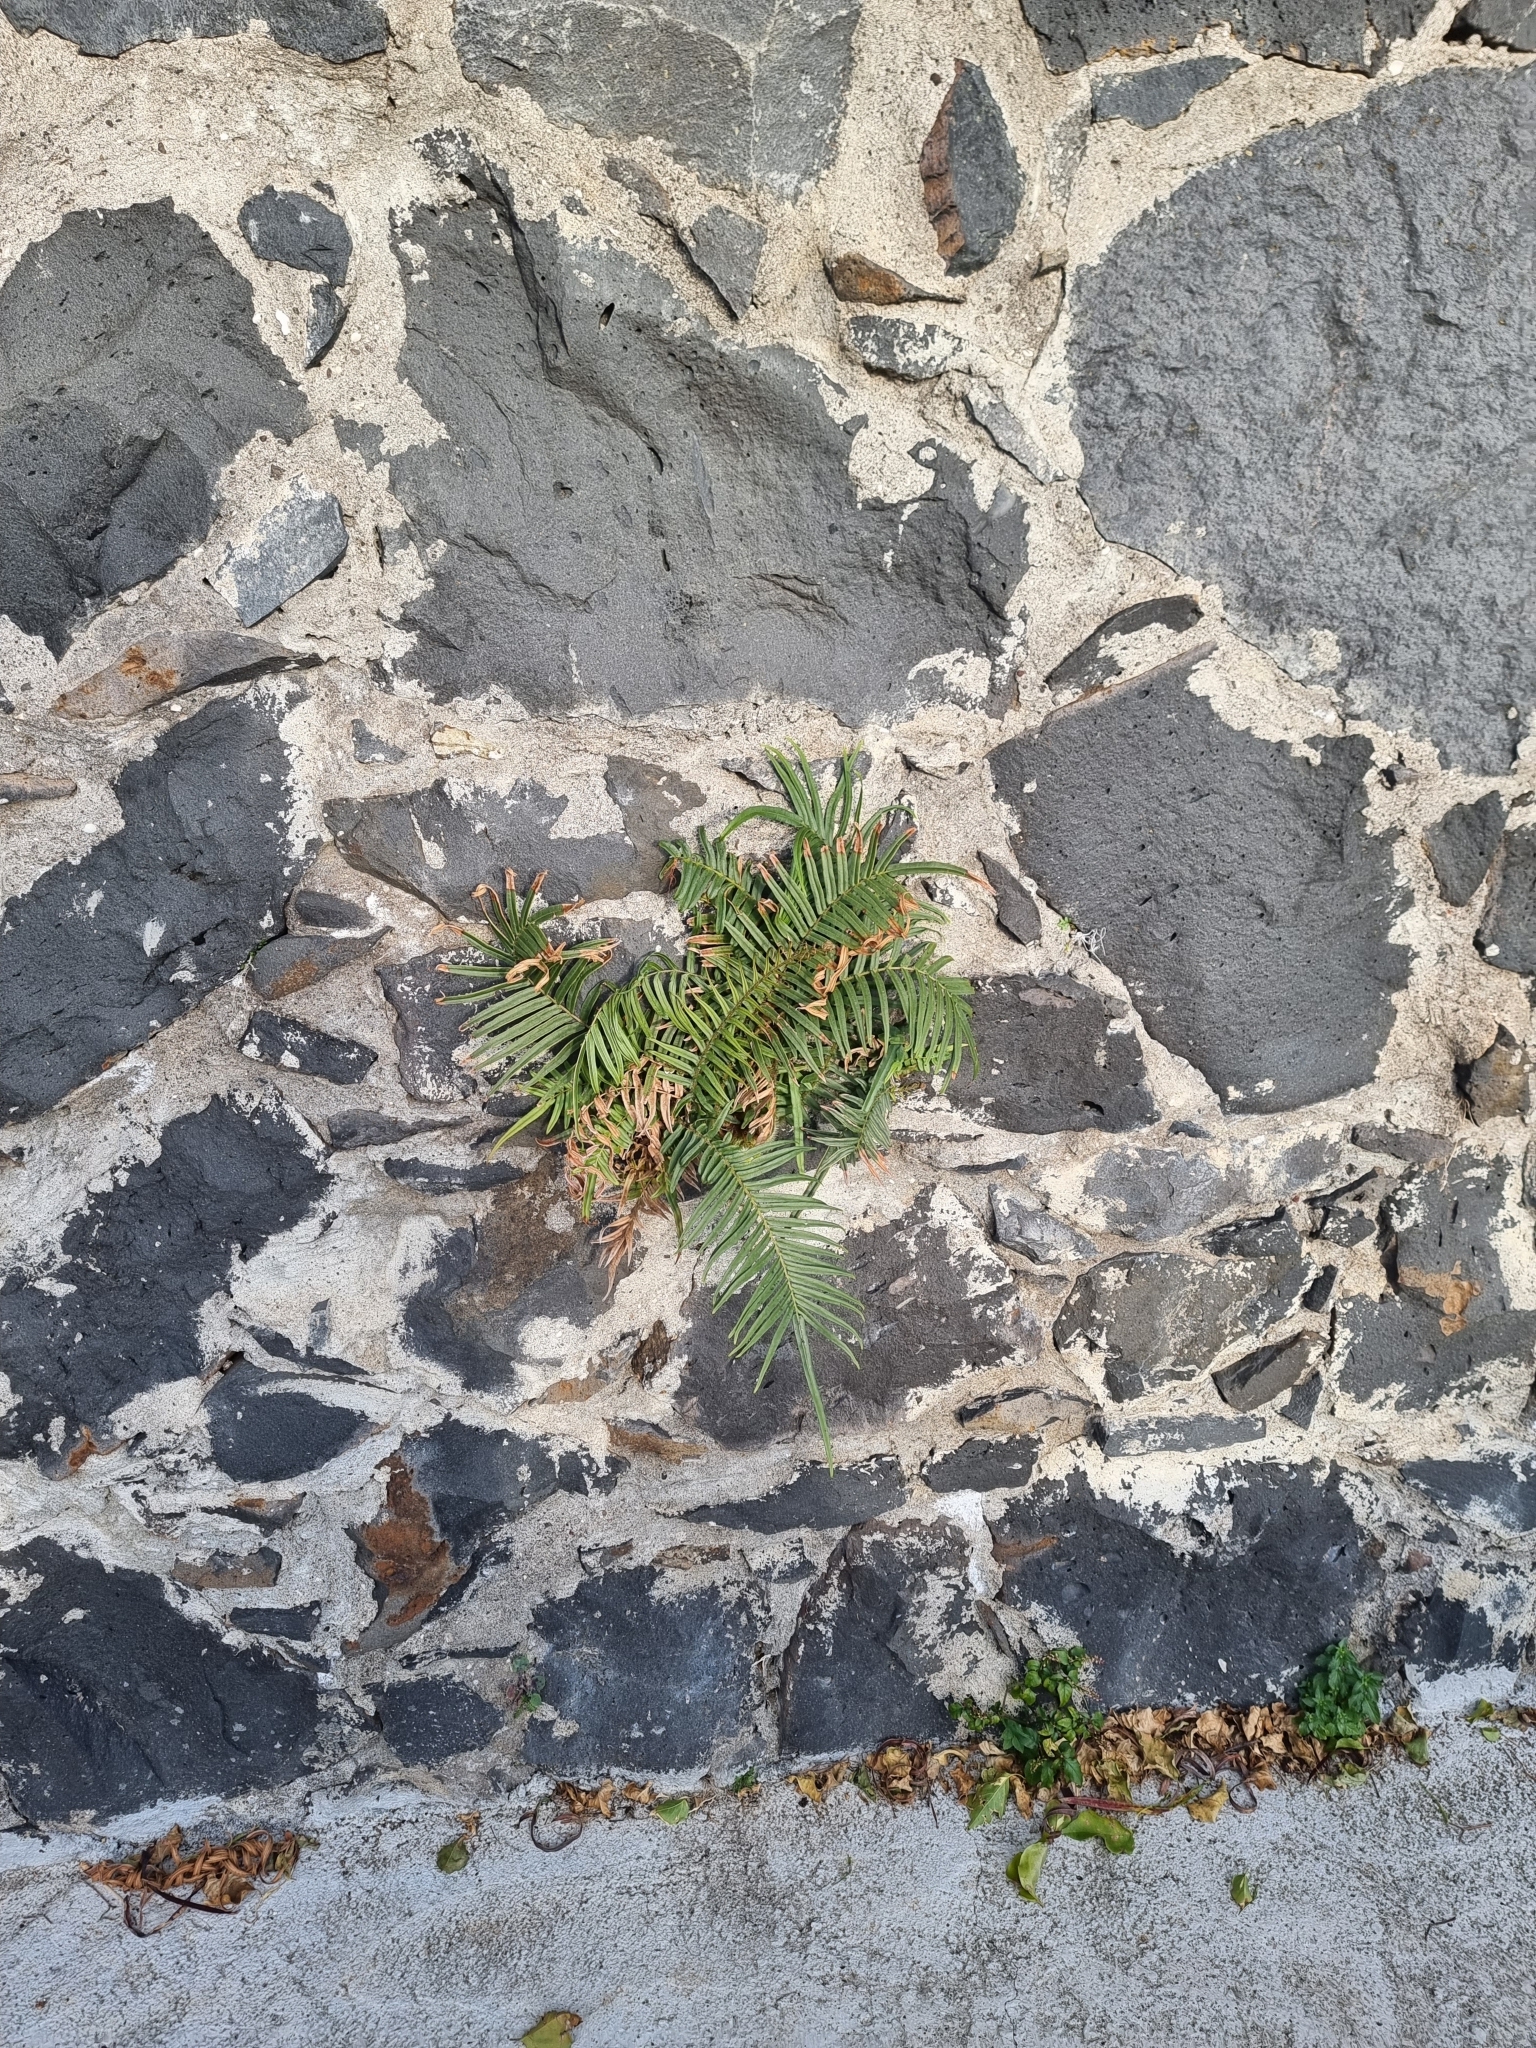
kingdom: Plantae
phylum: Tracheophyta
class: Polypodiopsida
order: Polypodiales
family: Pteridaceae
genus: Pteris
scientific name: Pteris vittata
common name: Ladder brake
